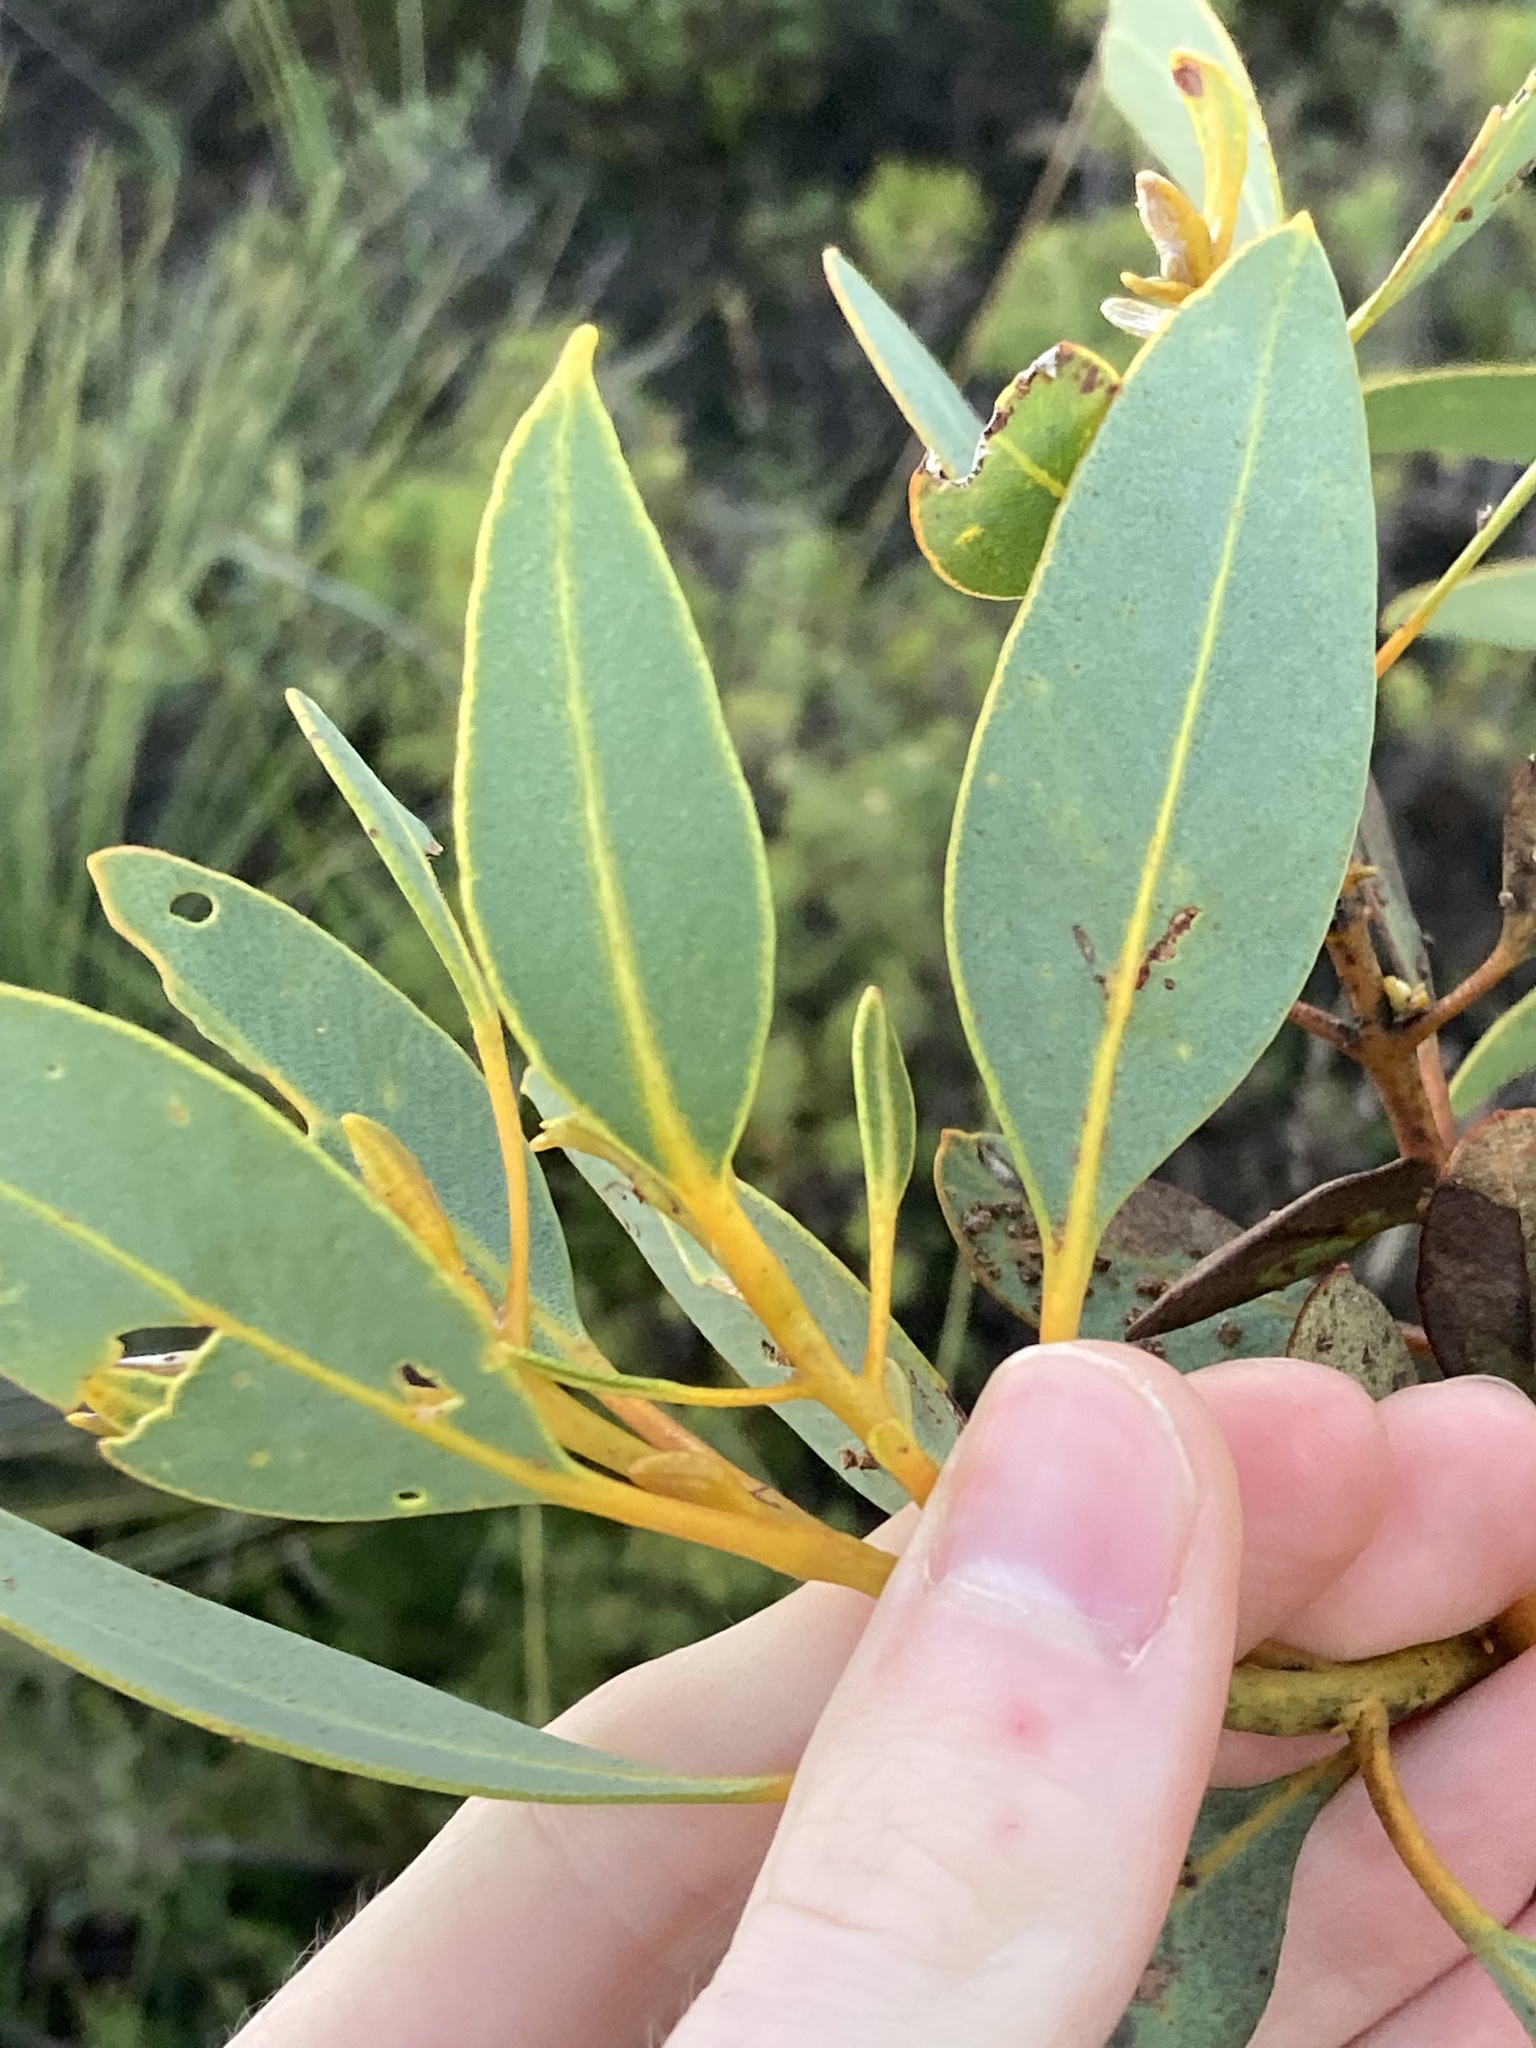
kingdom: Plantae
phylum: Tracheophyta
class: Magnoliopsida
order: Myrtales
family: Myrtaceae
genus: Eucalyptus
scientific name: Eucalyptus gittinsii
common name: Northern sandplain mallee
